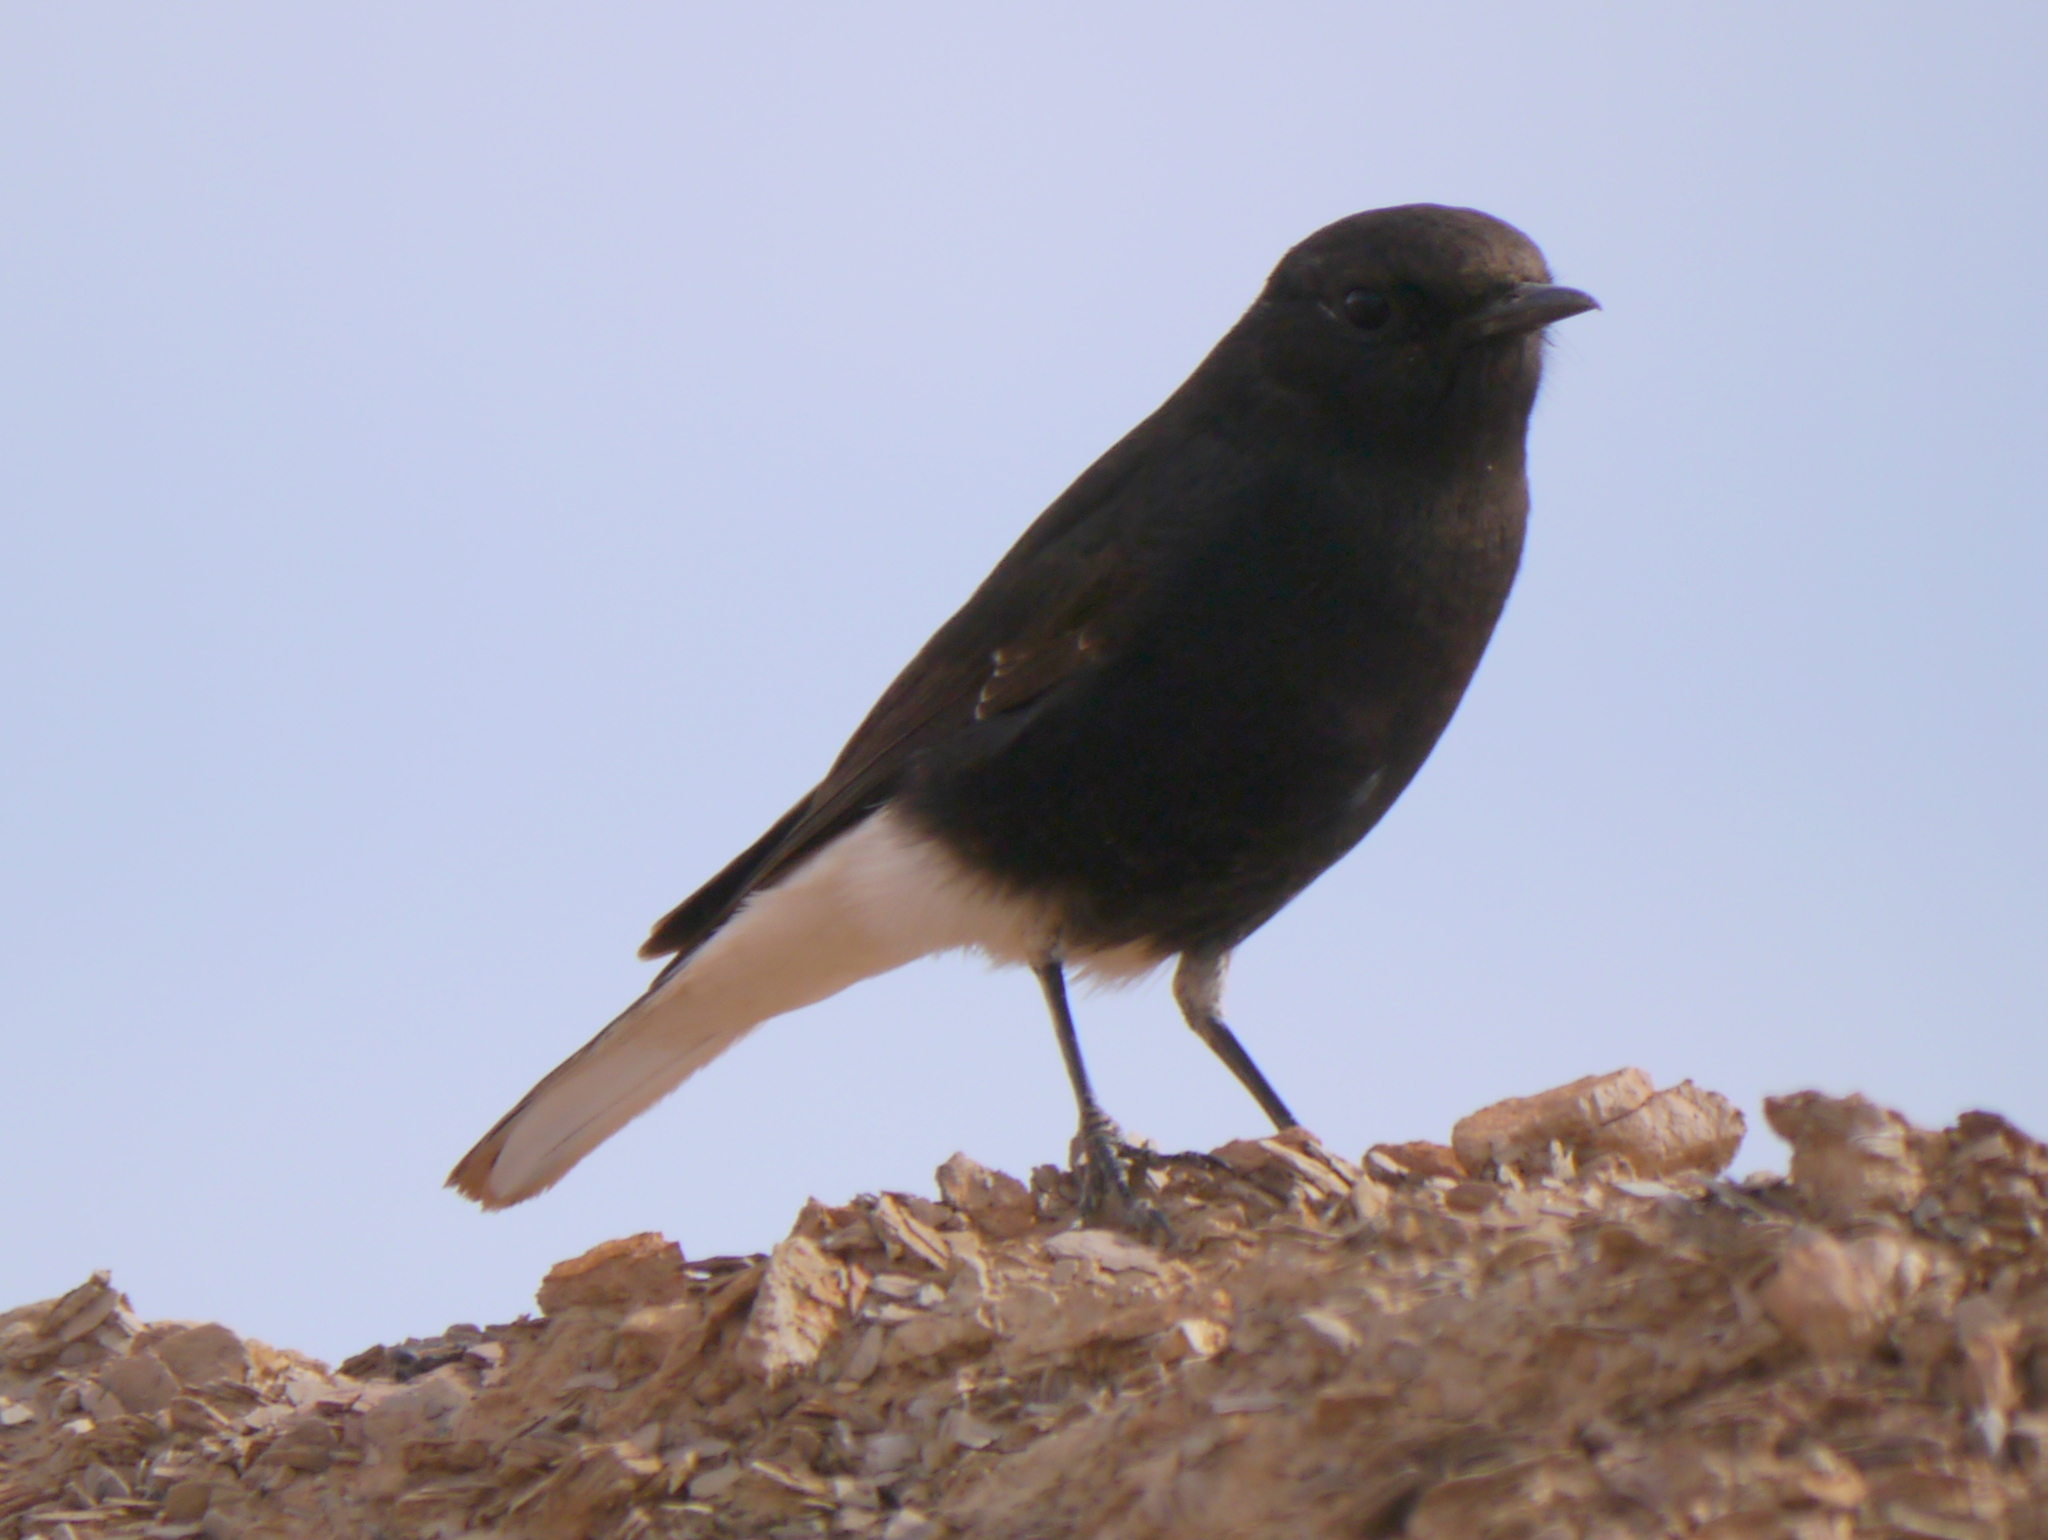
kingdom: Animalia
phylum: Chordata
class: Aves
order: Passeriformes
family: Muscicapidae
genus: Oenanthe
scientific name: Oenanthe leucopyga
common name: White-crowned wheatear
